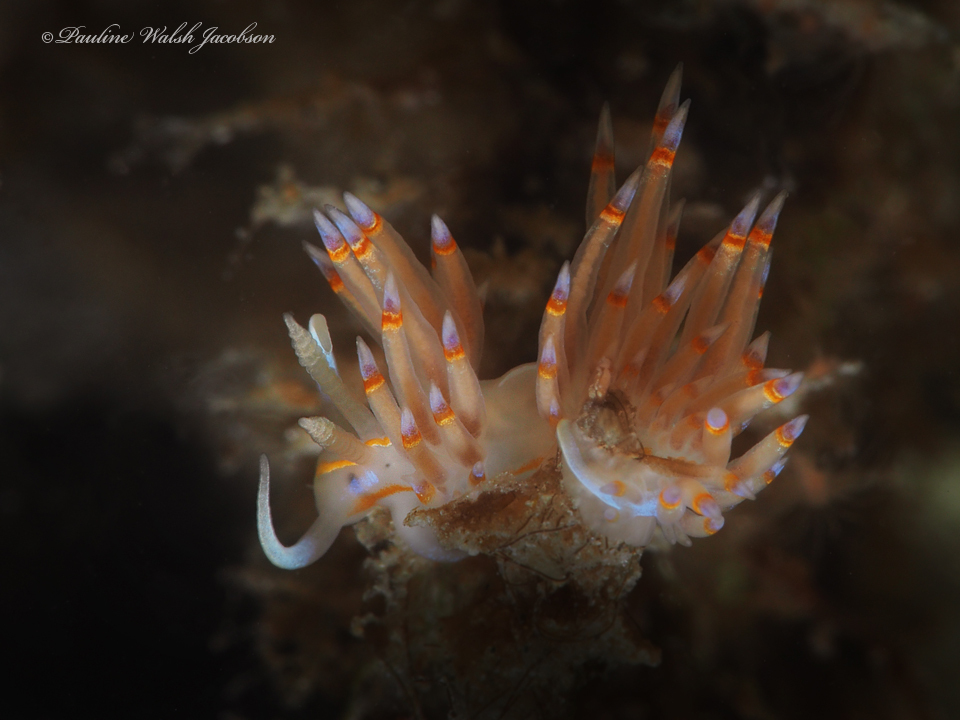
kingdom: Animalia
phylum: Mollusca
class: Gastropoda
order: Nudibranchia
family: Myrrhinidae
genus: Dondice
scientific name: Dondice jupiteriensis
